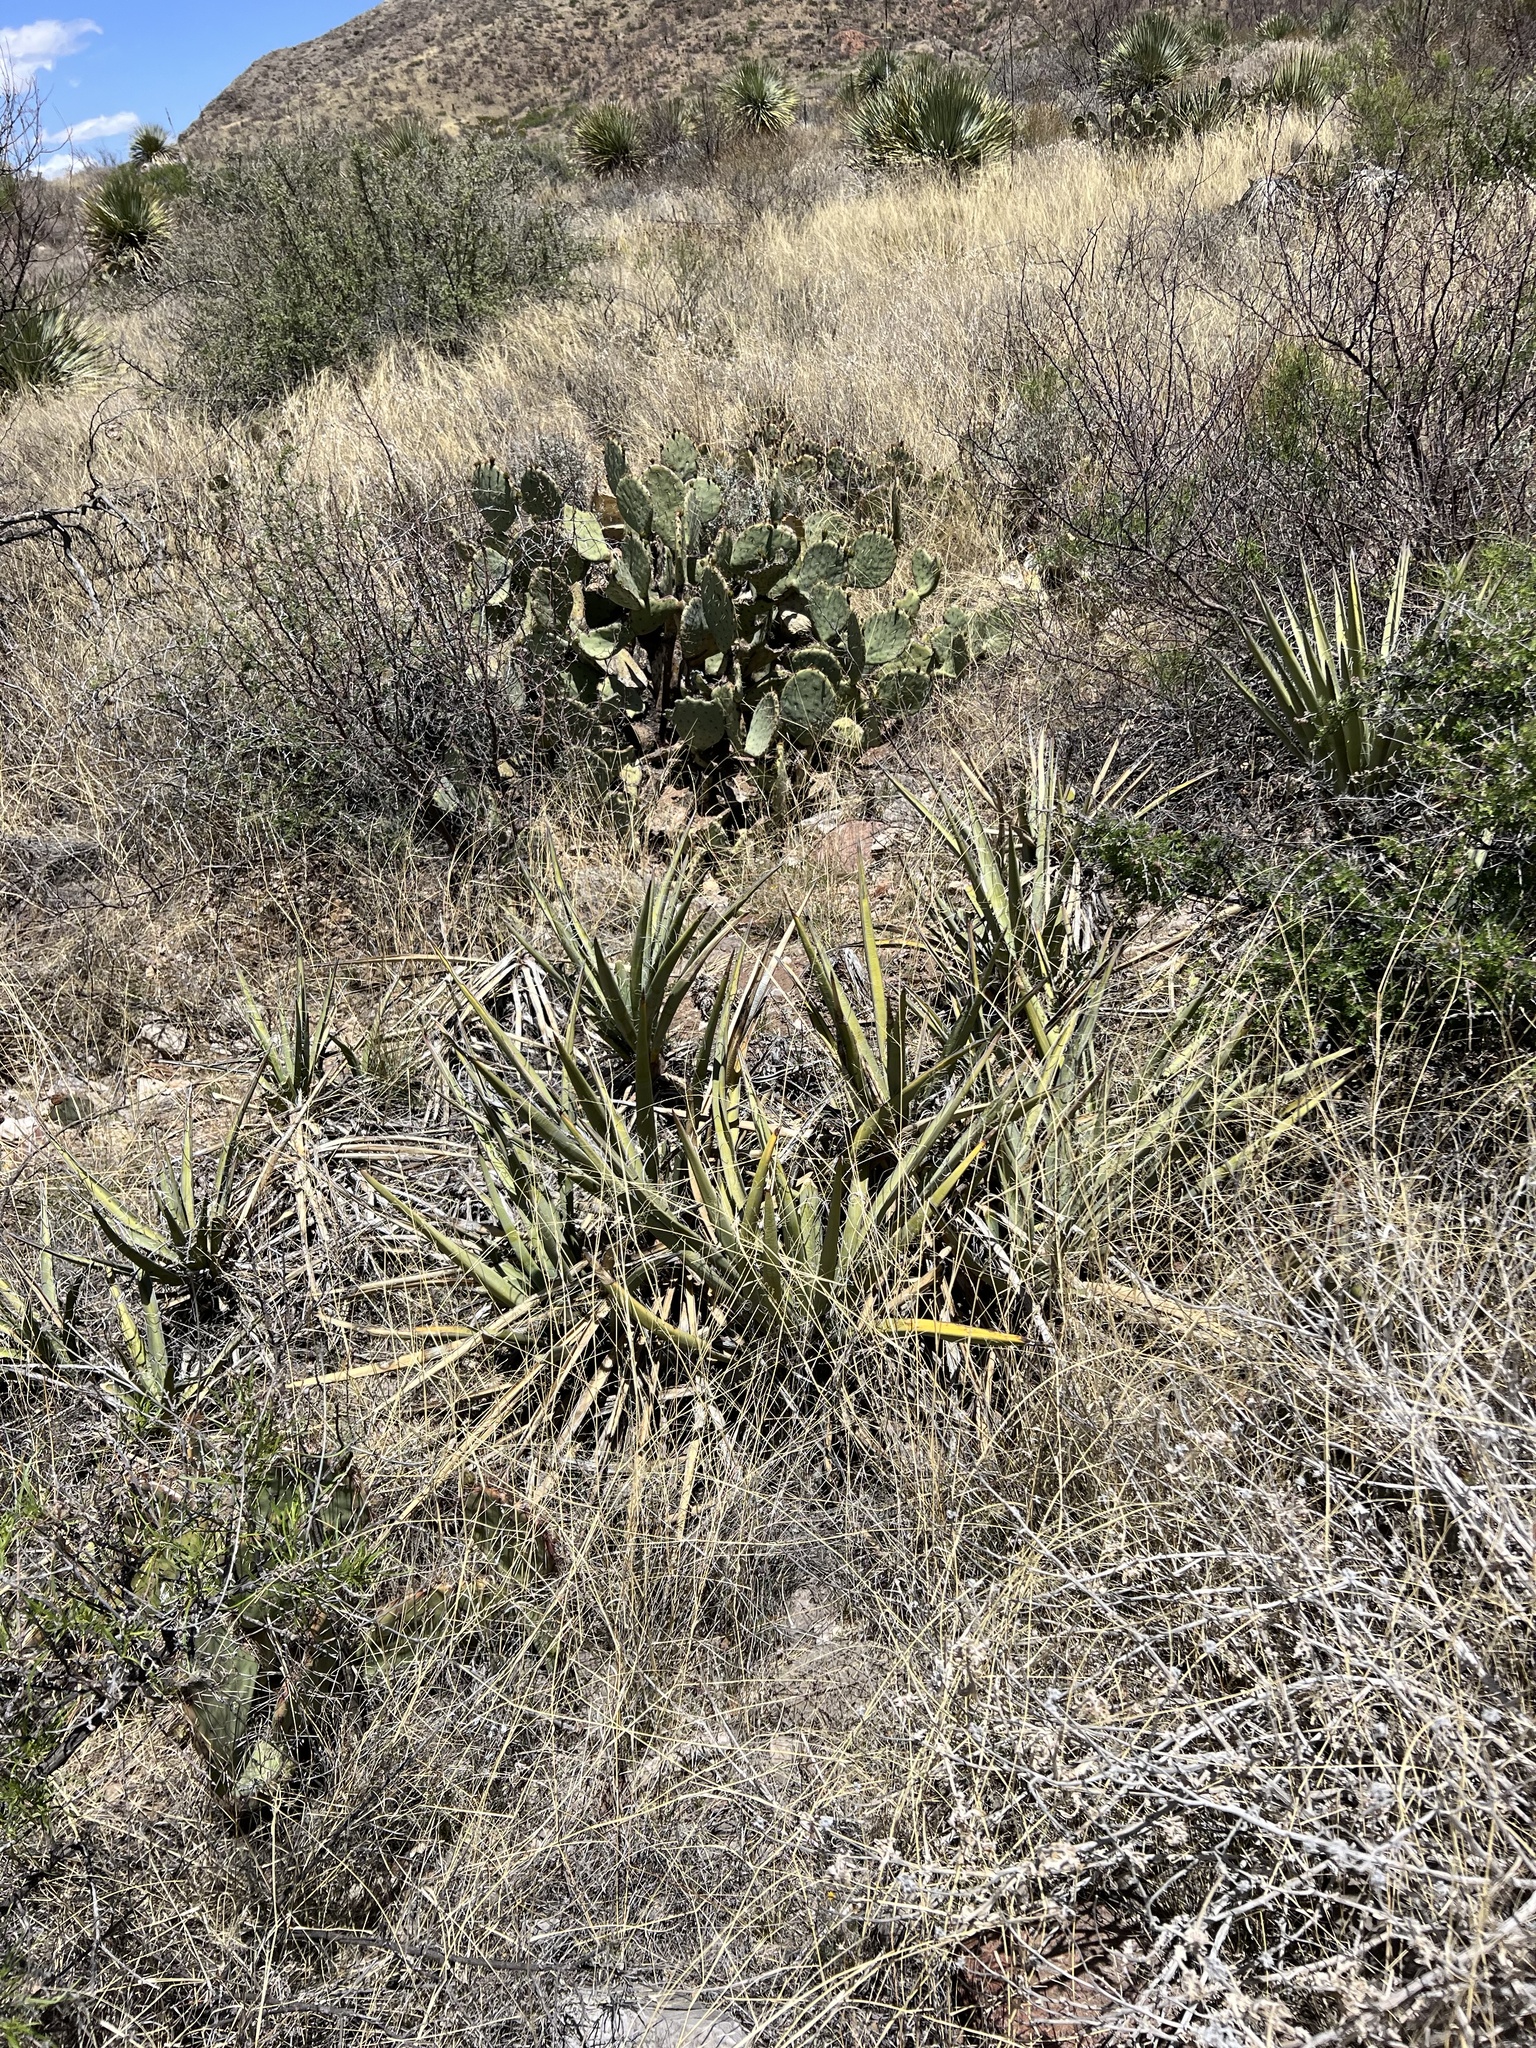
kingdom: Plantae
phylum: Tracheophyta
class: Liliopsida
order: Asparagales
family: Asparagaceae
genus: Yucca
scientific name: Yucca baccata
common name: Banana yucca
